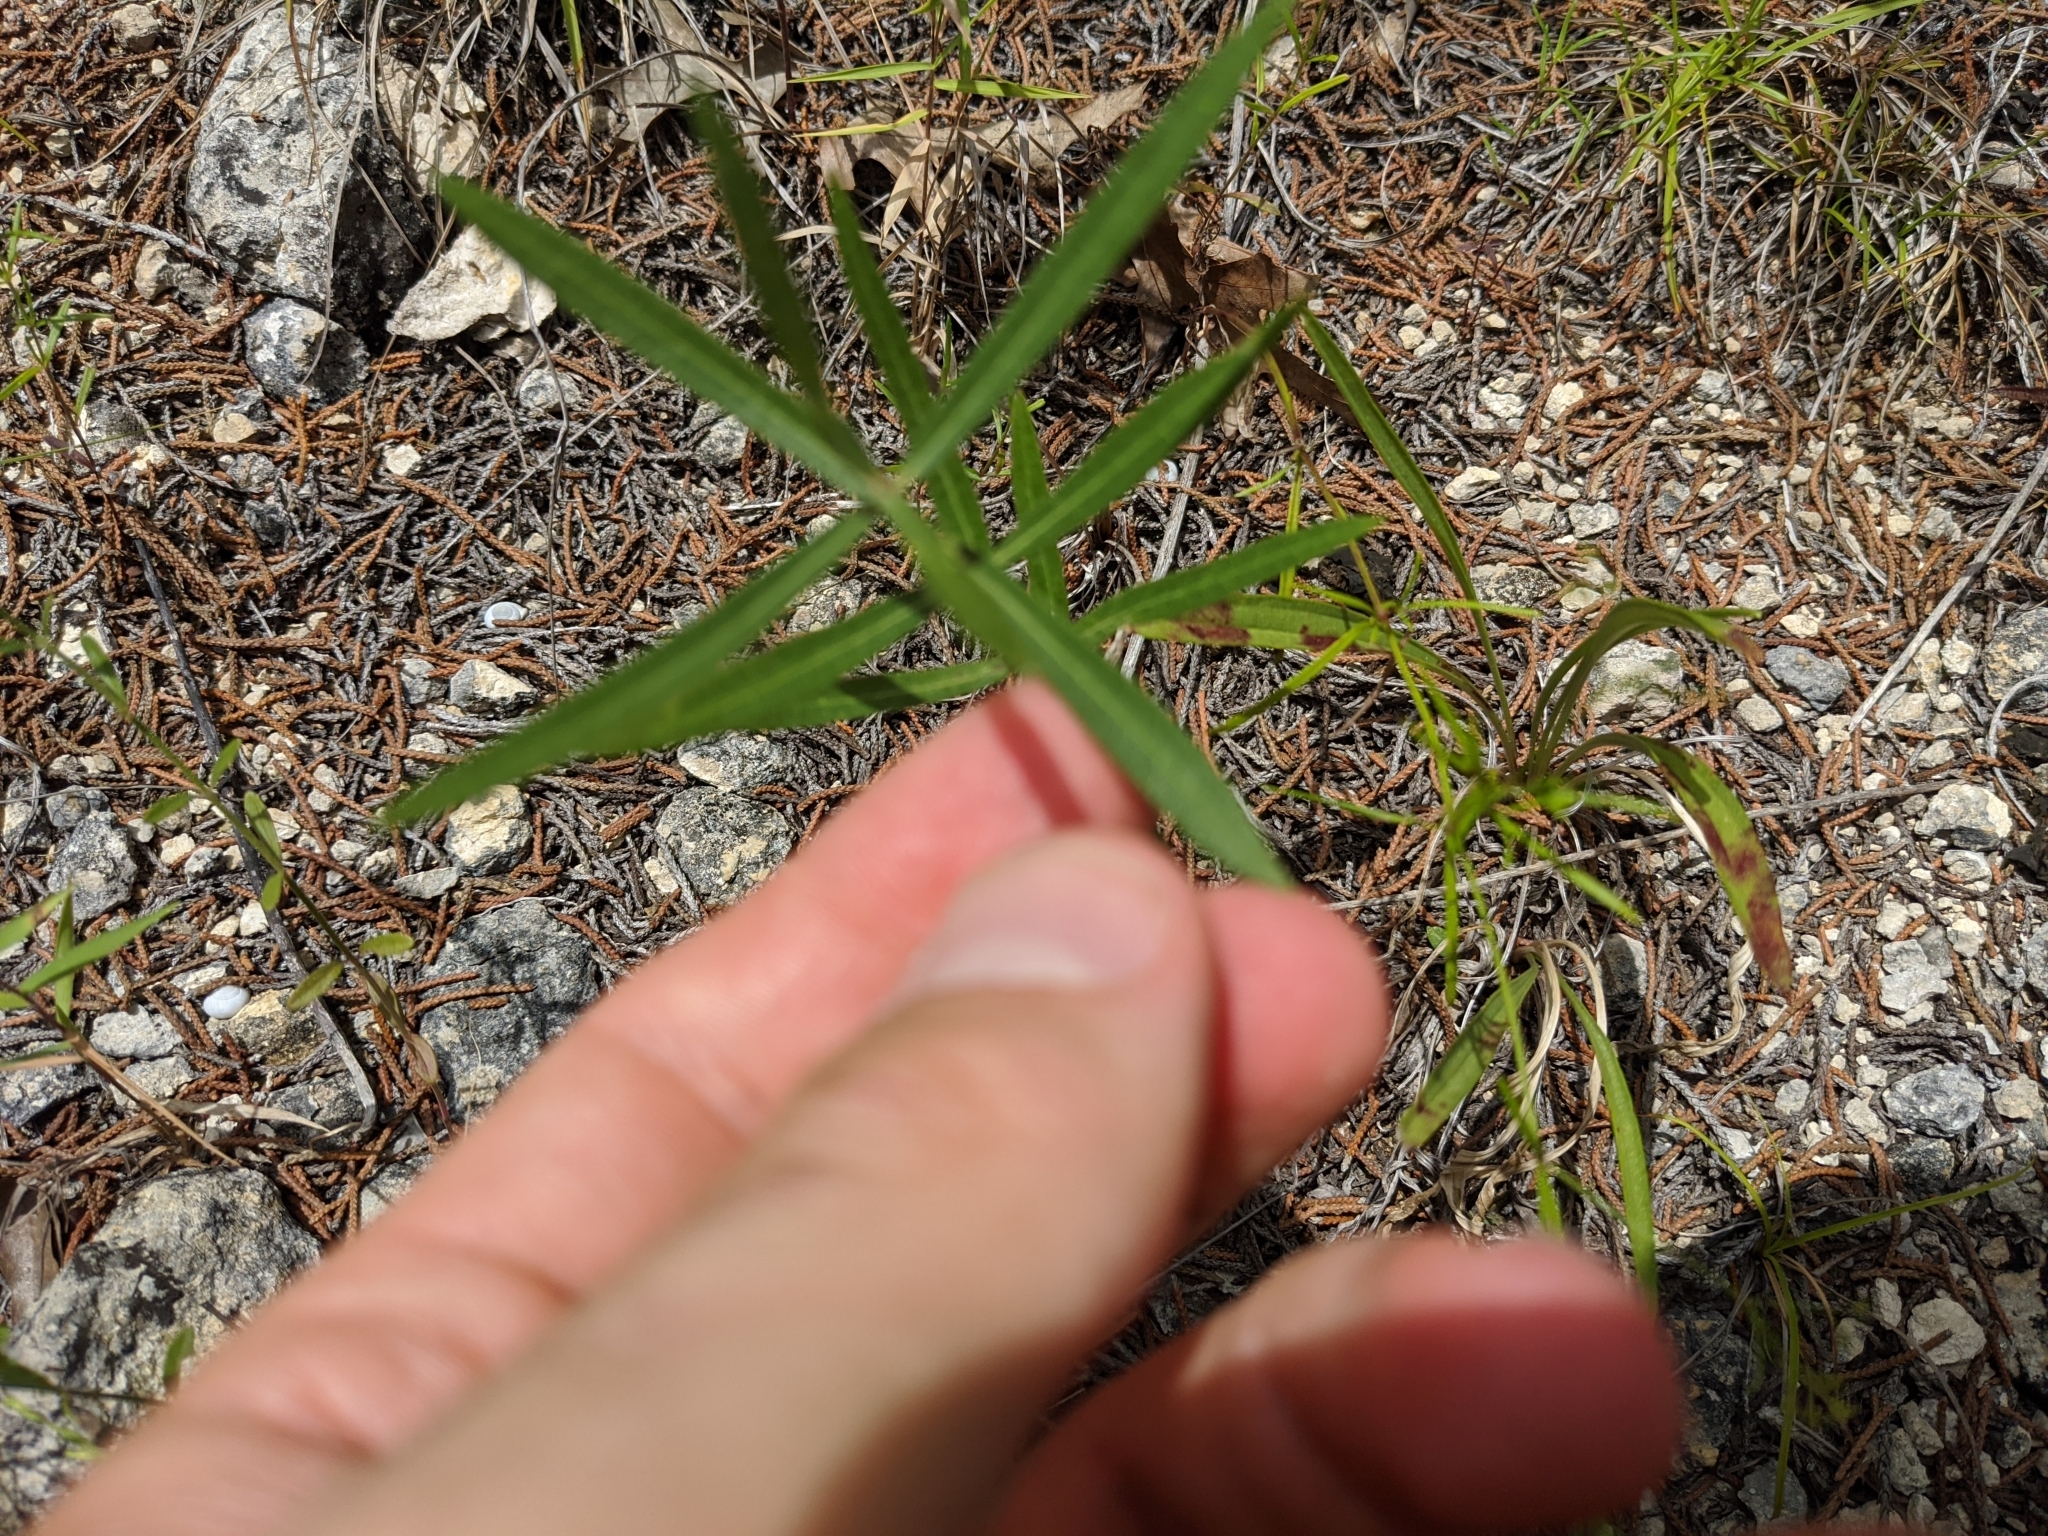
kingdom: Plantae
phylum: Tracheophyta
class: Magnoliopsida
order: Gentianales
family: Apocynaceae
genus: Asclepias
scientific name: Asclepias viridiflora
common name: Green comet milkweed
